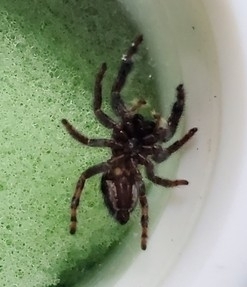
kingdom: Animalia
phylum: Arthropoda
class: Arachnida
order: Araneae
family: Salticidae
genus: Phidippus
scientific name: Phidippus audax
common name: Bold jumper
